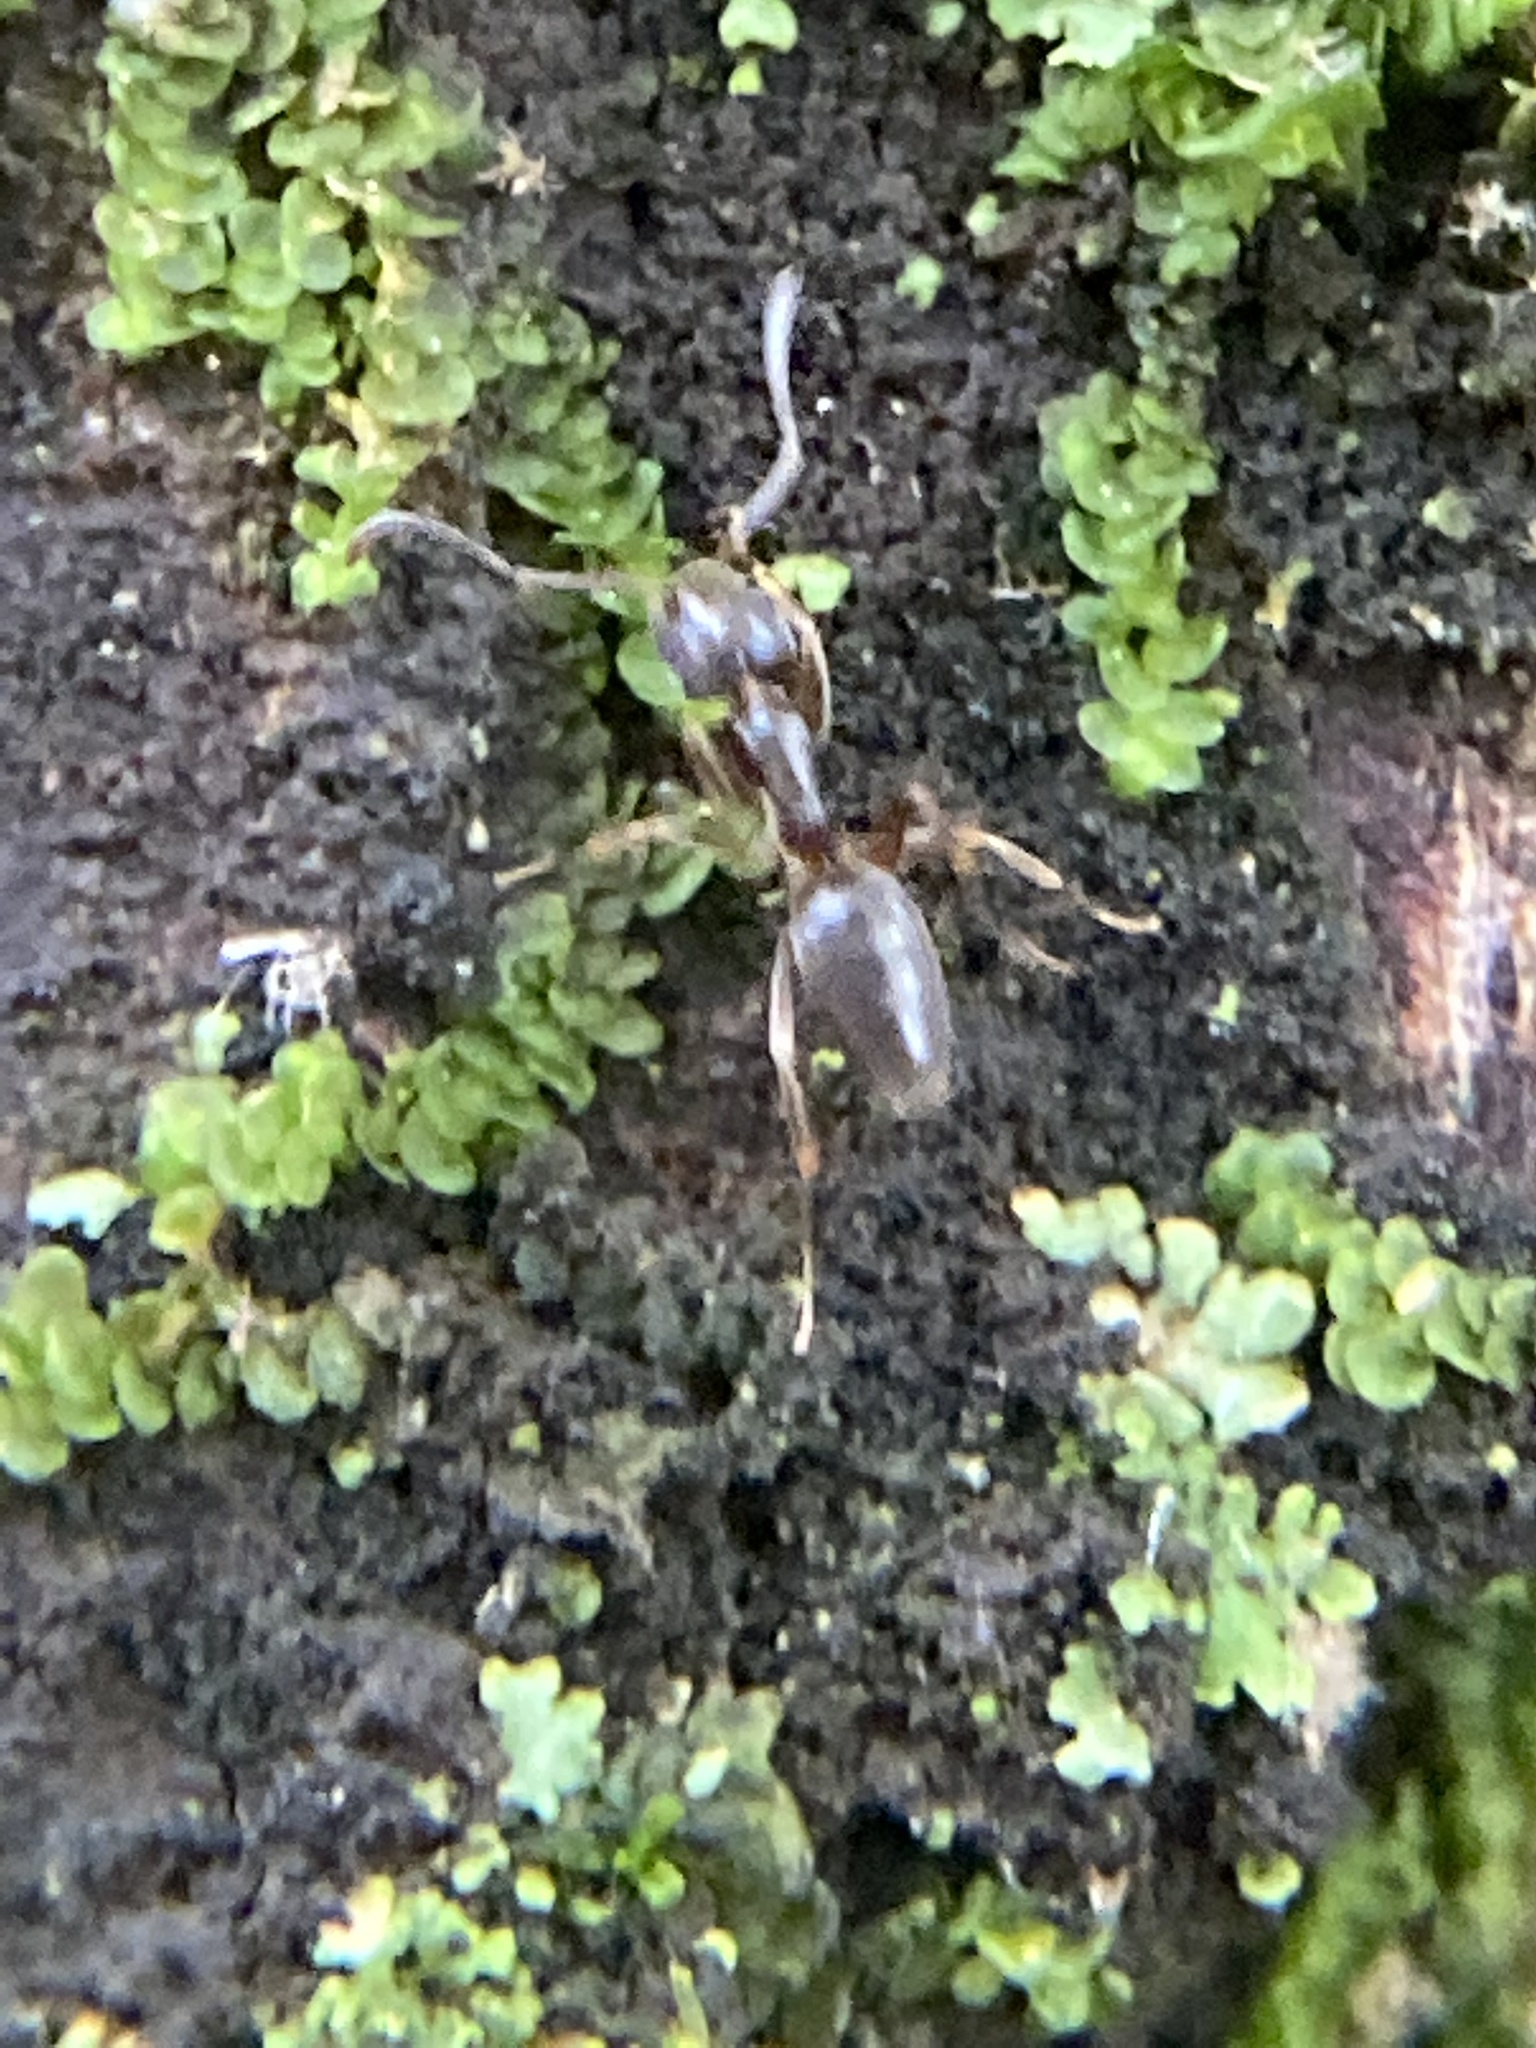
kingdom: Animalia
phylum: Arthropoda
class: Insecta
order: Hymenoptera
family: Formicidae
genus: Tapinoma
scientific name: Tapinoma sessile
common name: Odorous house ant
